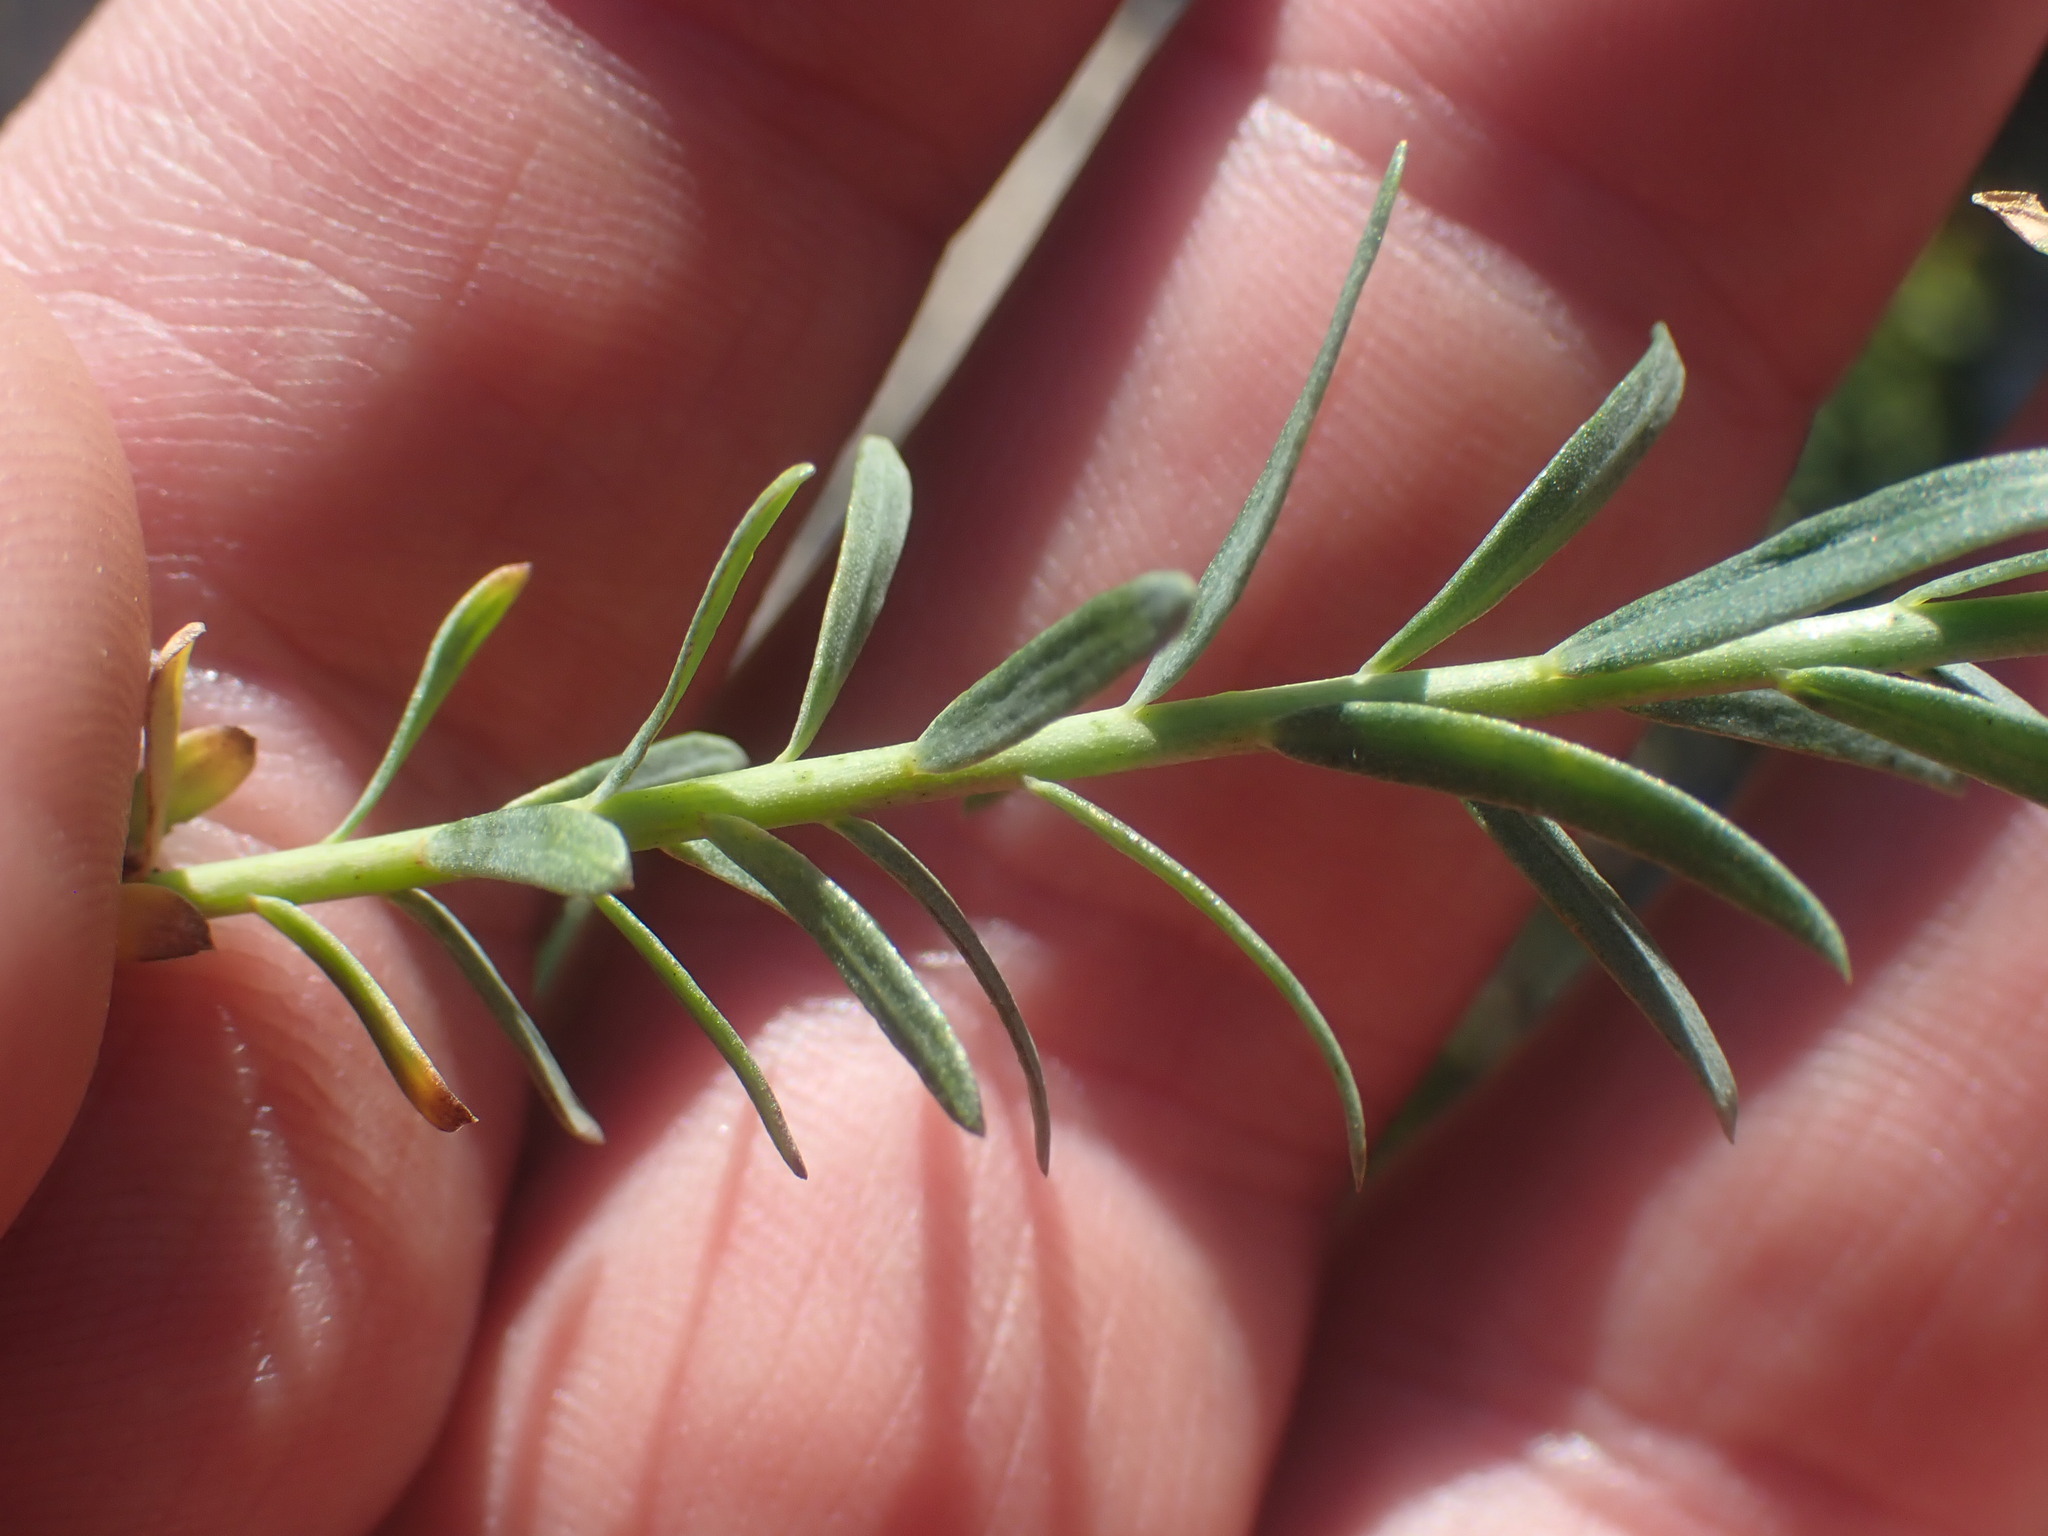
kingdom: Plantae
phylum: Tracheophyta
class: Magnoliopsida
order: Malpighiales
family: Linaceae
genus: Linum
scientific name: Linum lewisii
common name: Prairie flax
